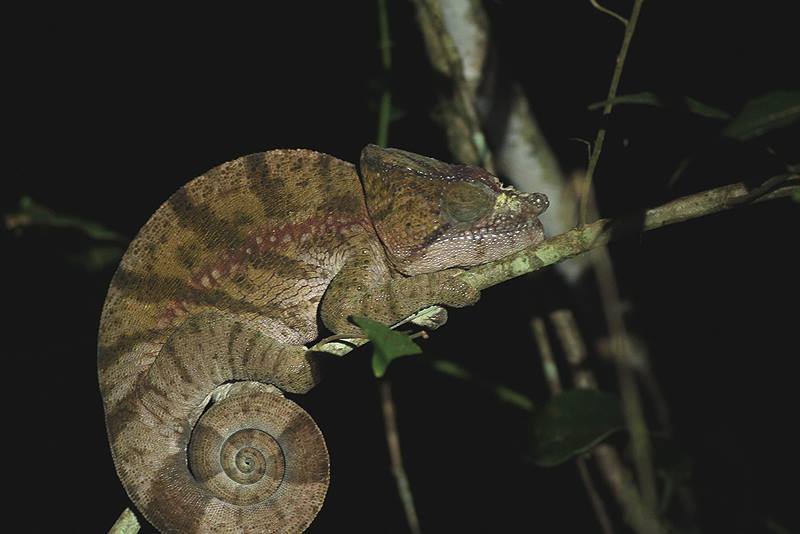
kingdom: Animalia
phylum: Chordata
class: Squamata
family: Chamaeleonidae
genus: Calumma
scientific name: Calumma globifer
